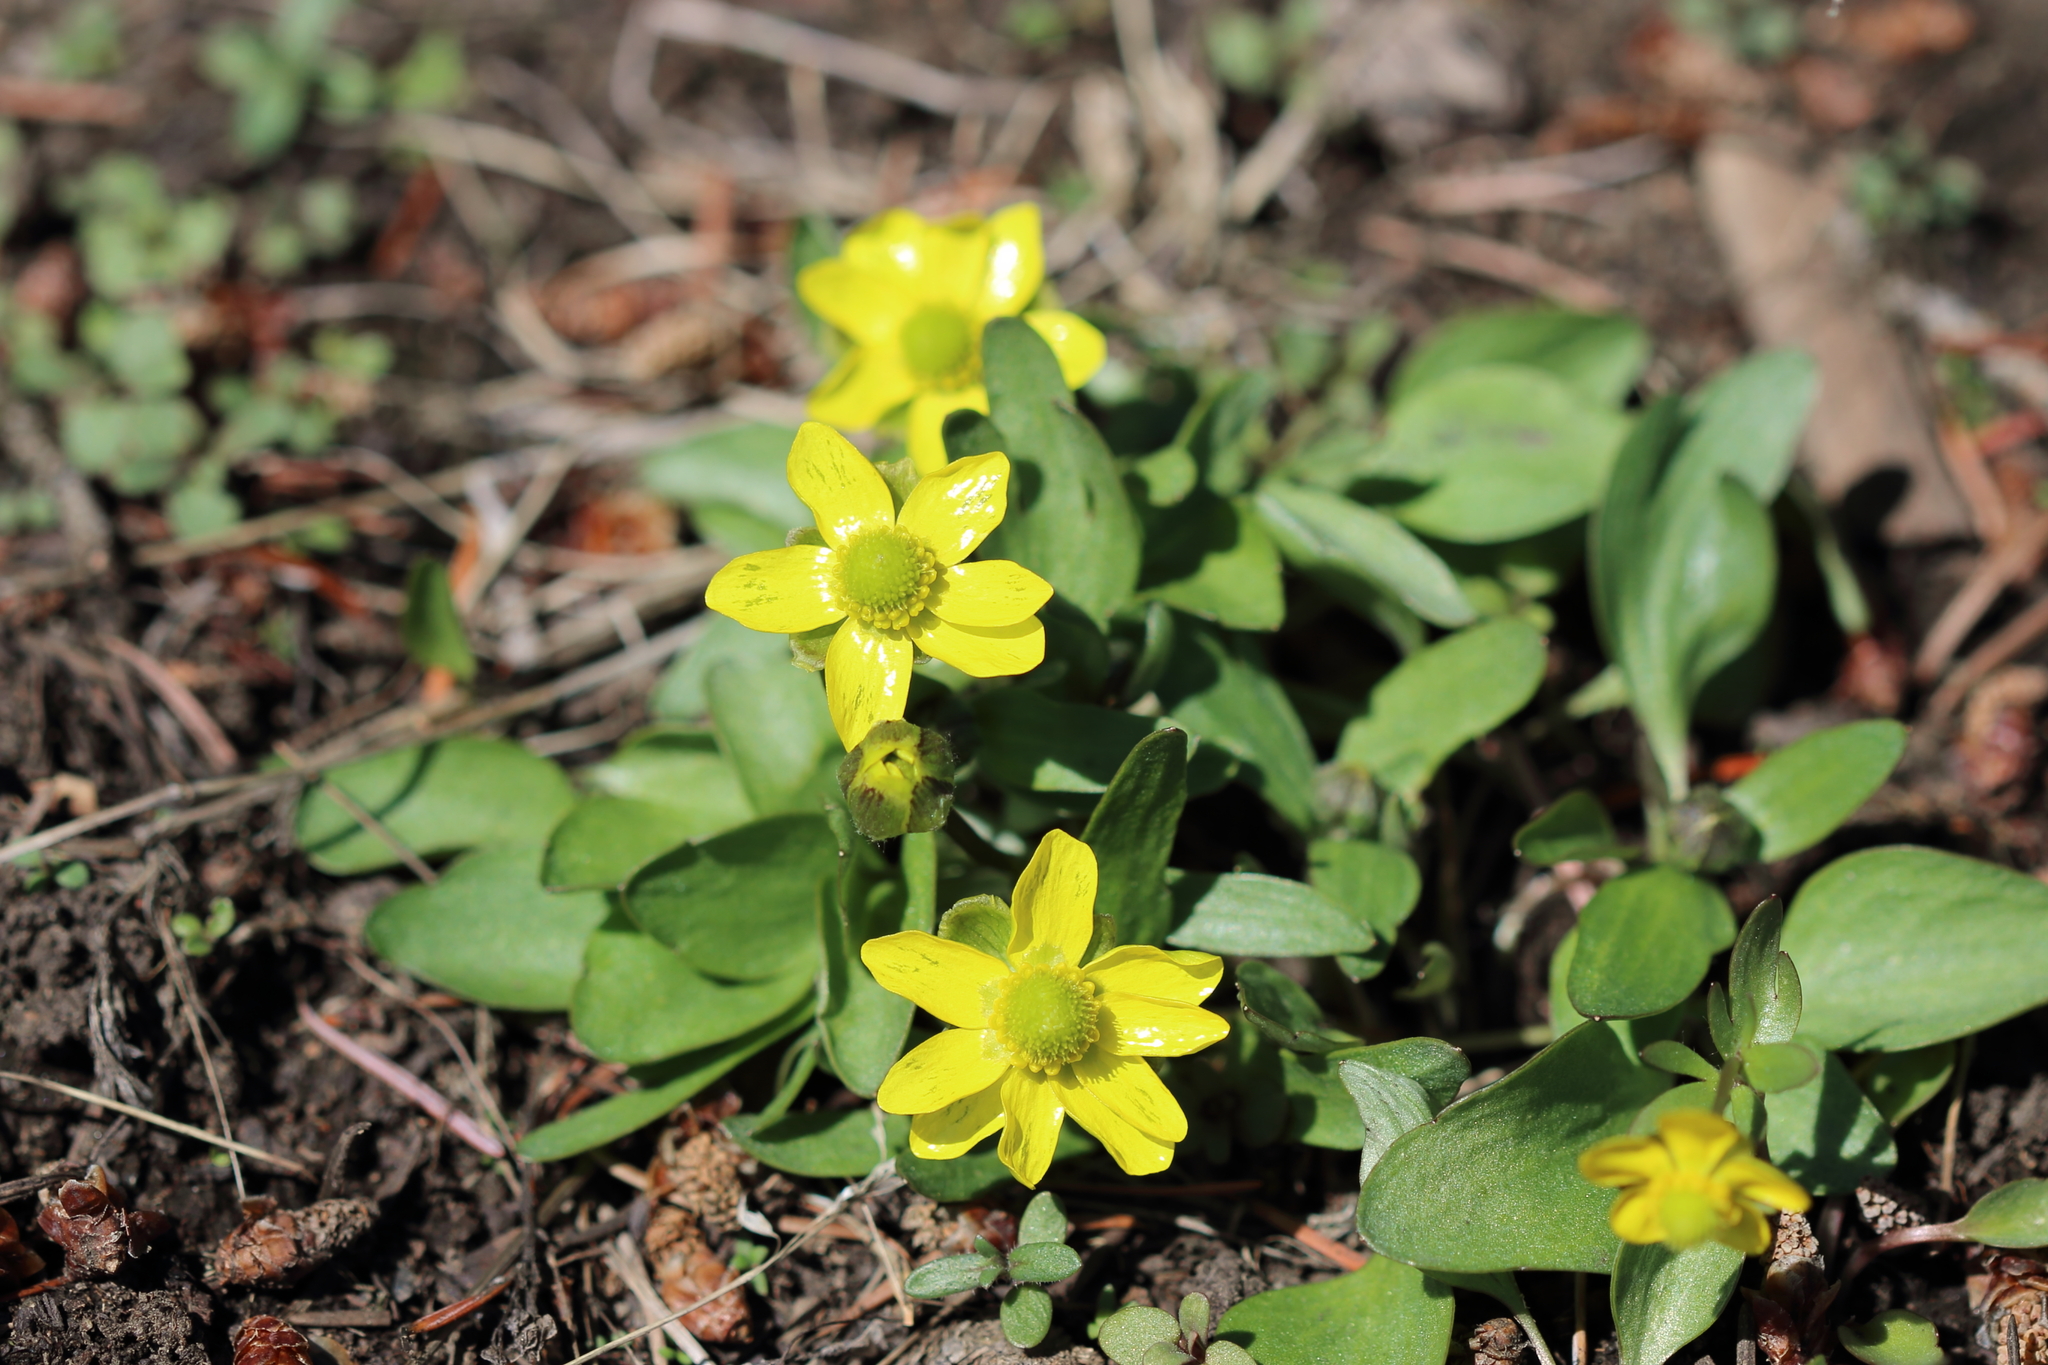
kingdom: Plantae
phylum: Tracheophyta
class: Magnoliopsida
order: Ranunculales
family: Ranunculaceae
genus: Ranunculus
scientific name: Ranunculus glaberrimus
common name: Sagebrush buttercup
